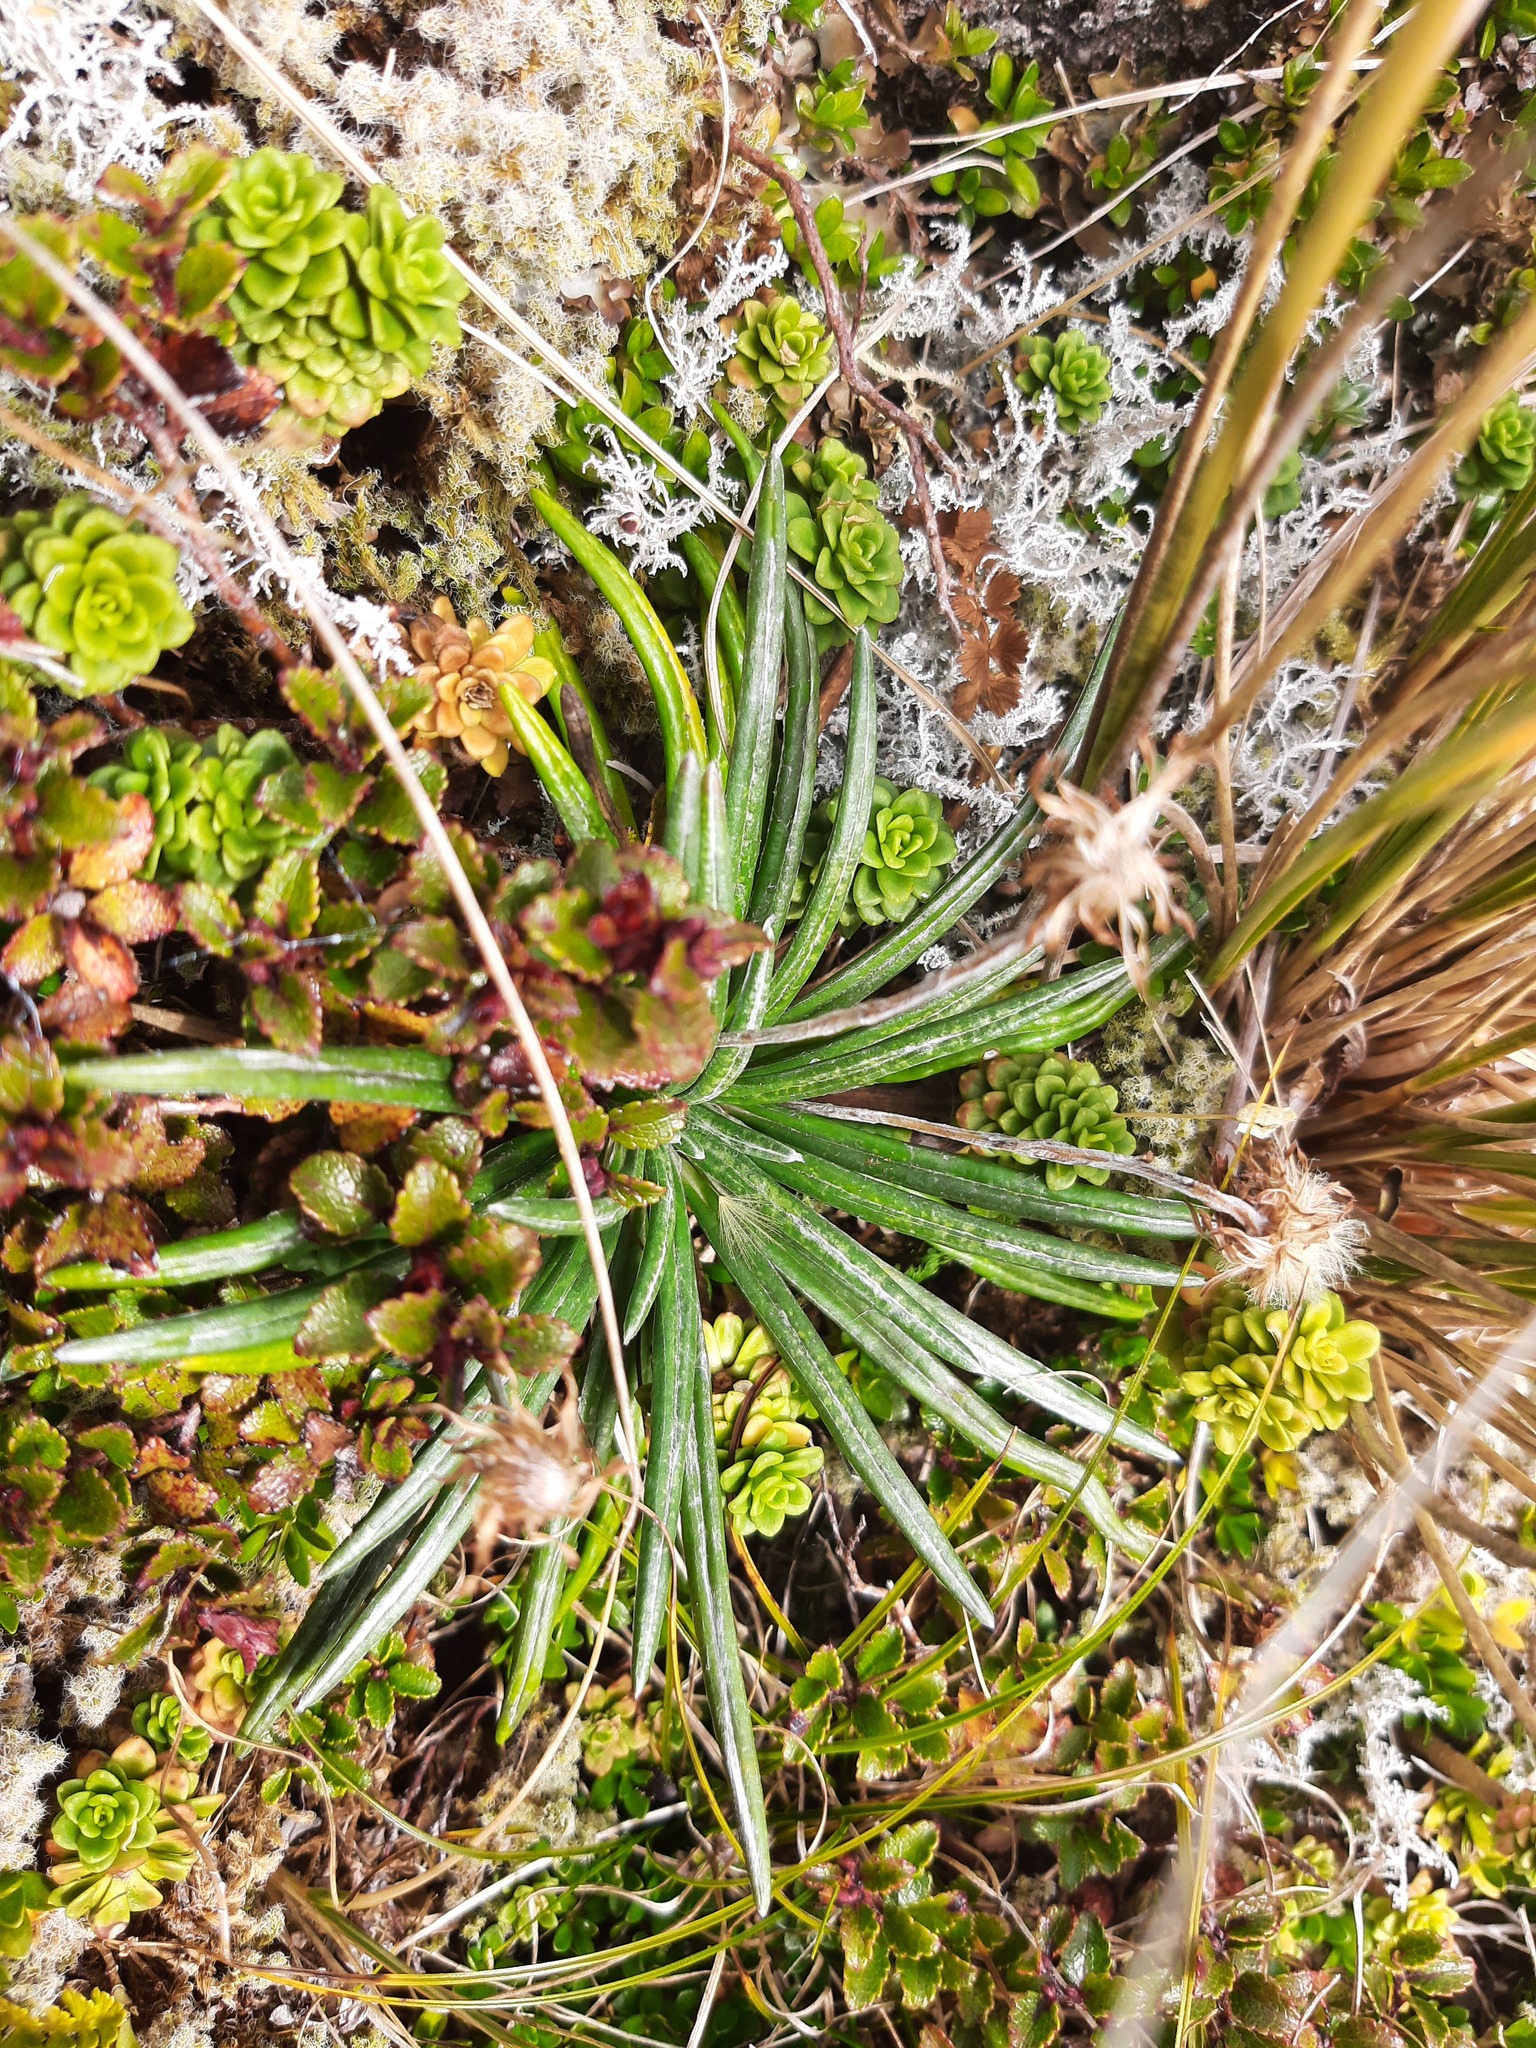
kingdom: Plantae
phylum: Tracheophyta
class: Magnoliopsida
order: Asterales
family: Asteraceae
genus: Celmisia
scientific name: Celmisia major
